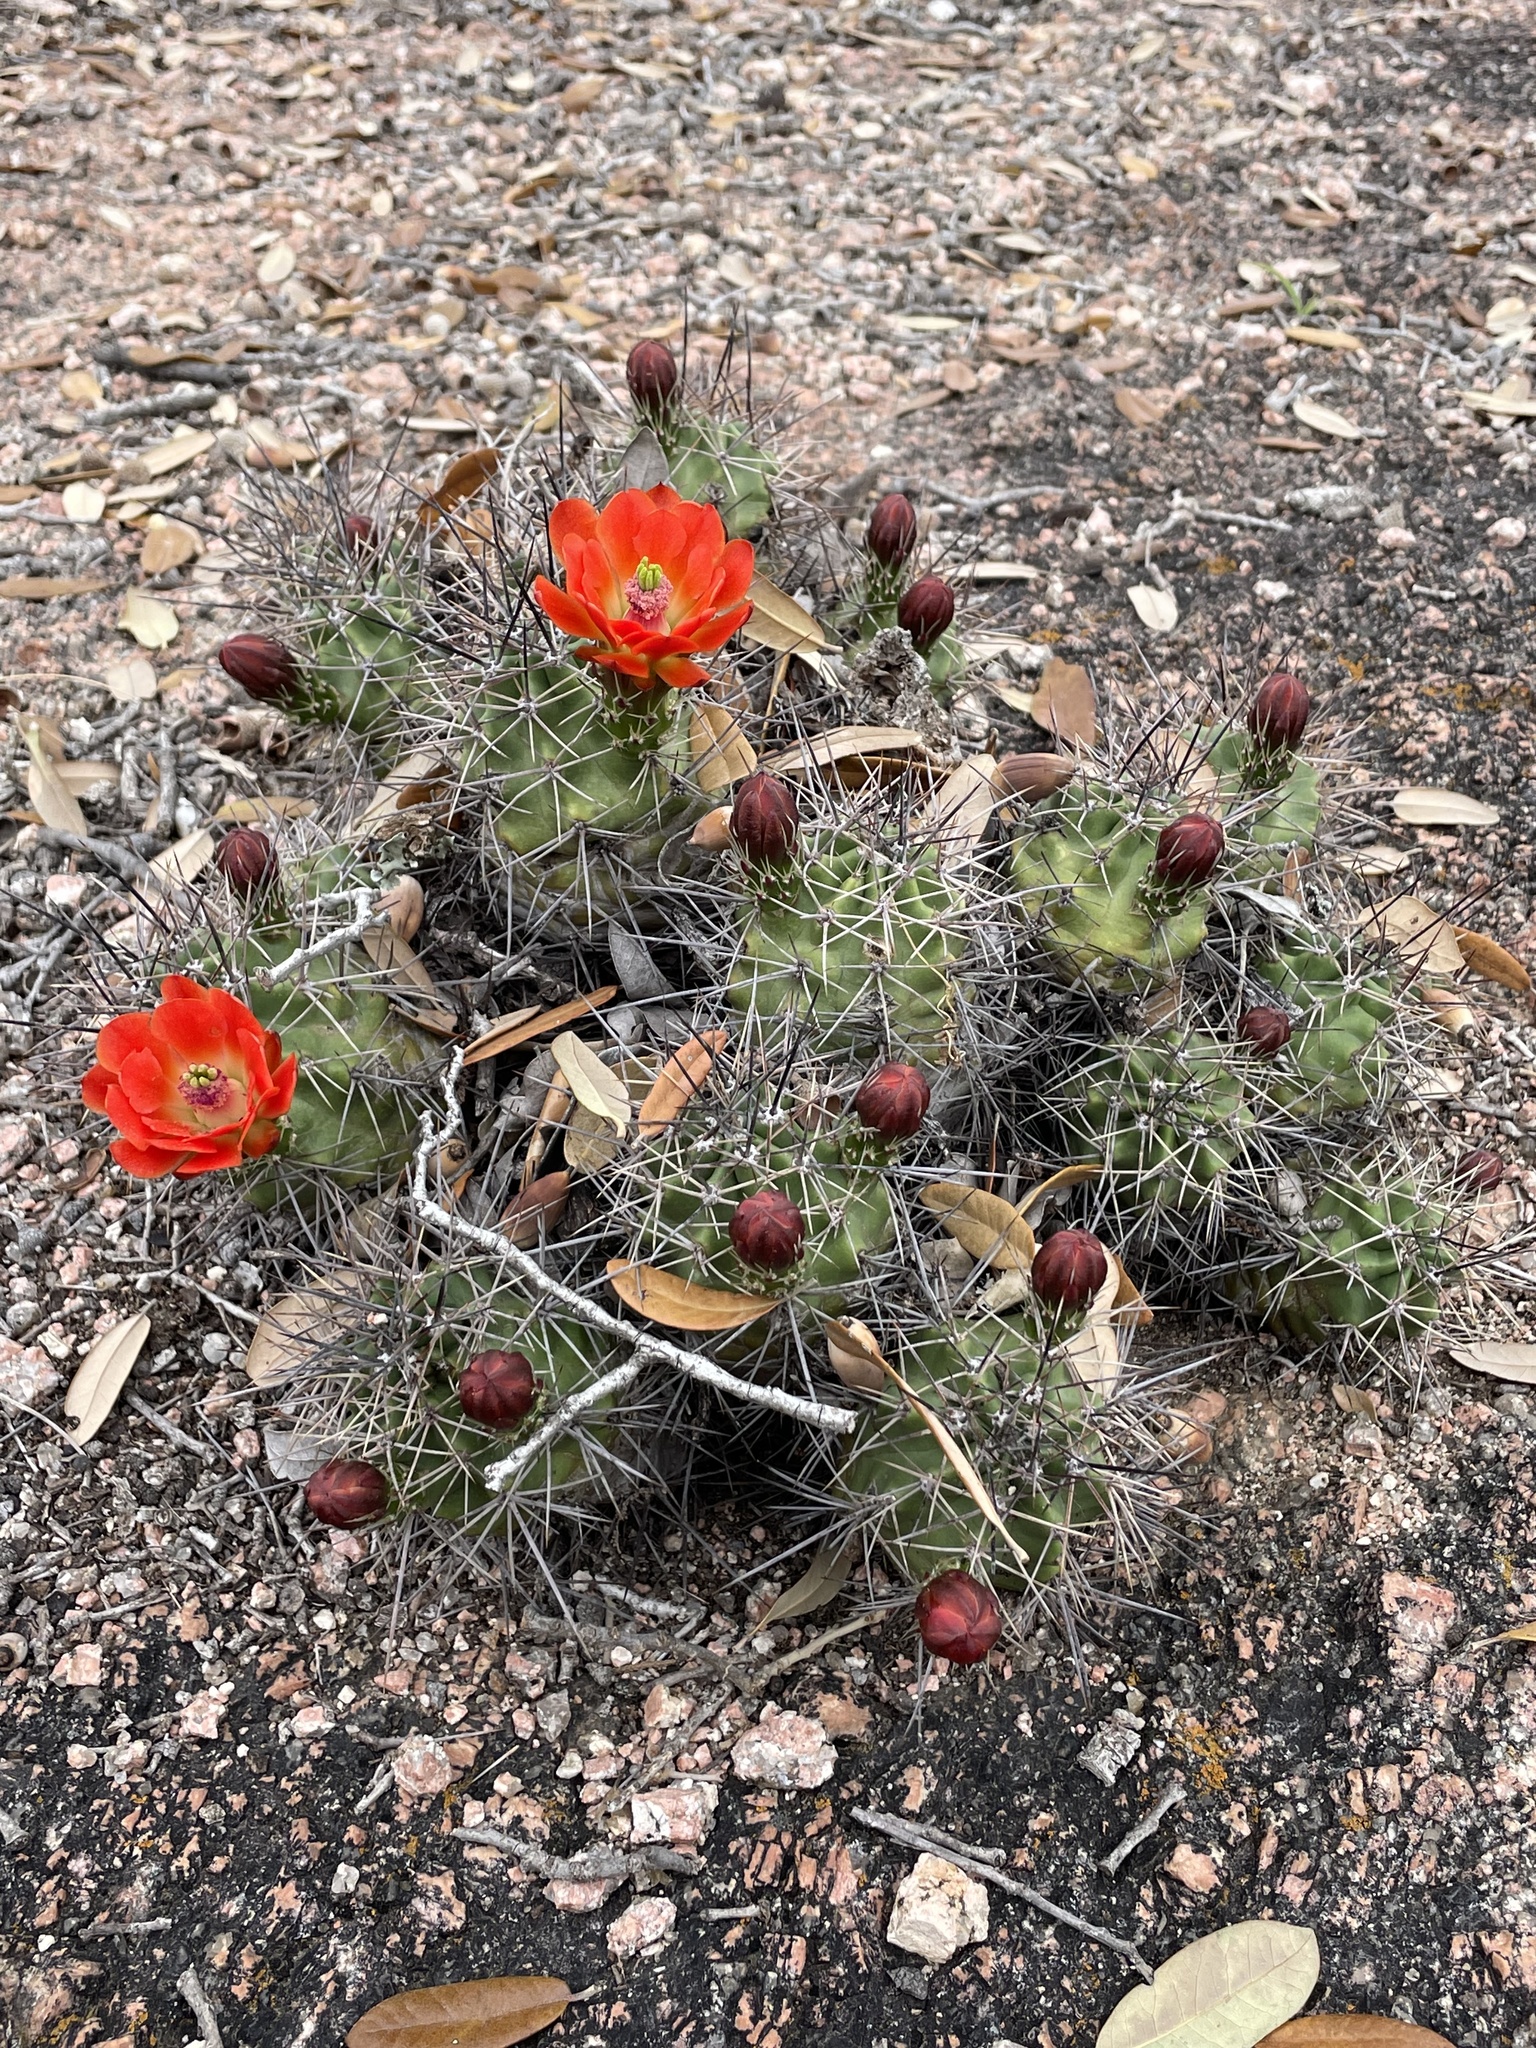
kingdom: Plantae
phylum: Tracheophyta
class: Magnoliopsida
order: Caryophyllales
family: Cactaceae
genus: Echinocereus
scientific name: Echinocereus coccineus
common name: Scarlet hedgehog cactus
